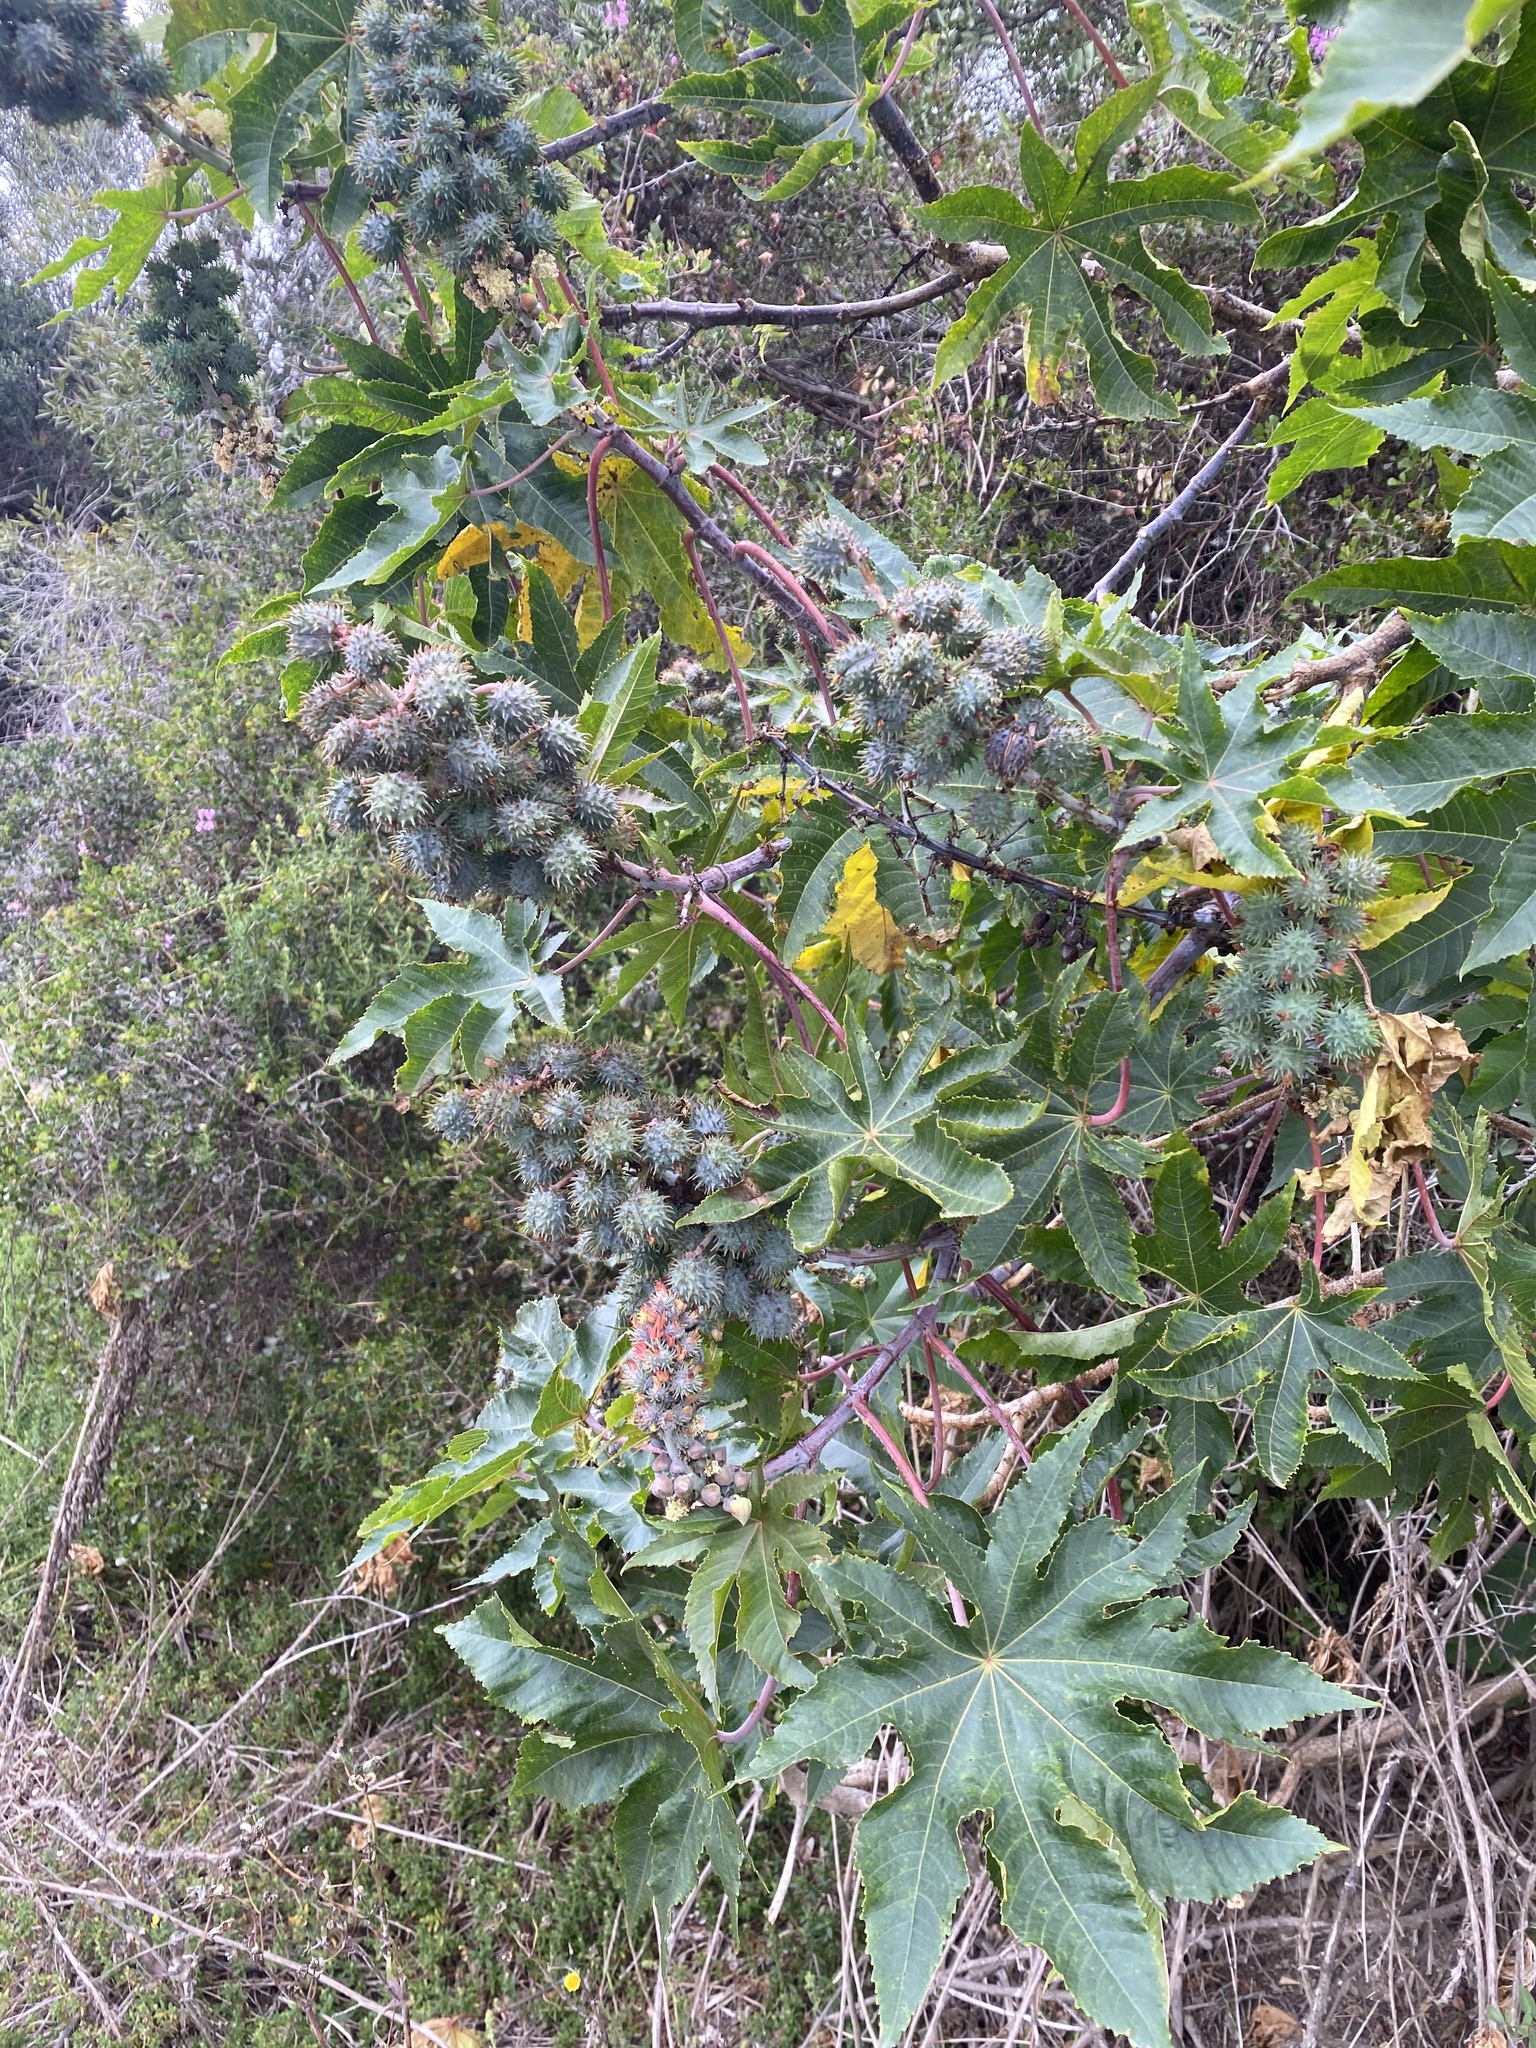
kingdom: Plantae
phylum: Tracheophyta
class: Magnoliopsida
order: Malpighiales
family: Euphorbiaceae
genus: Ricinus
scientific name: Ricinus communis
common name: Castor-oil-plant
